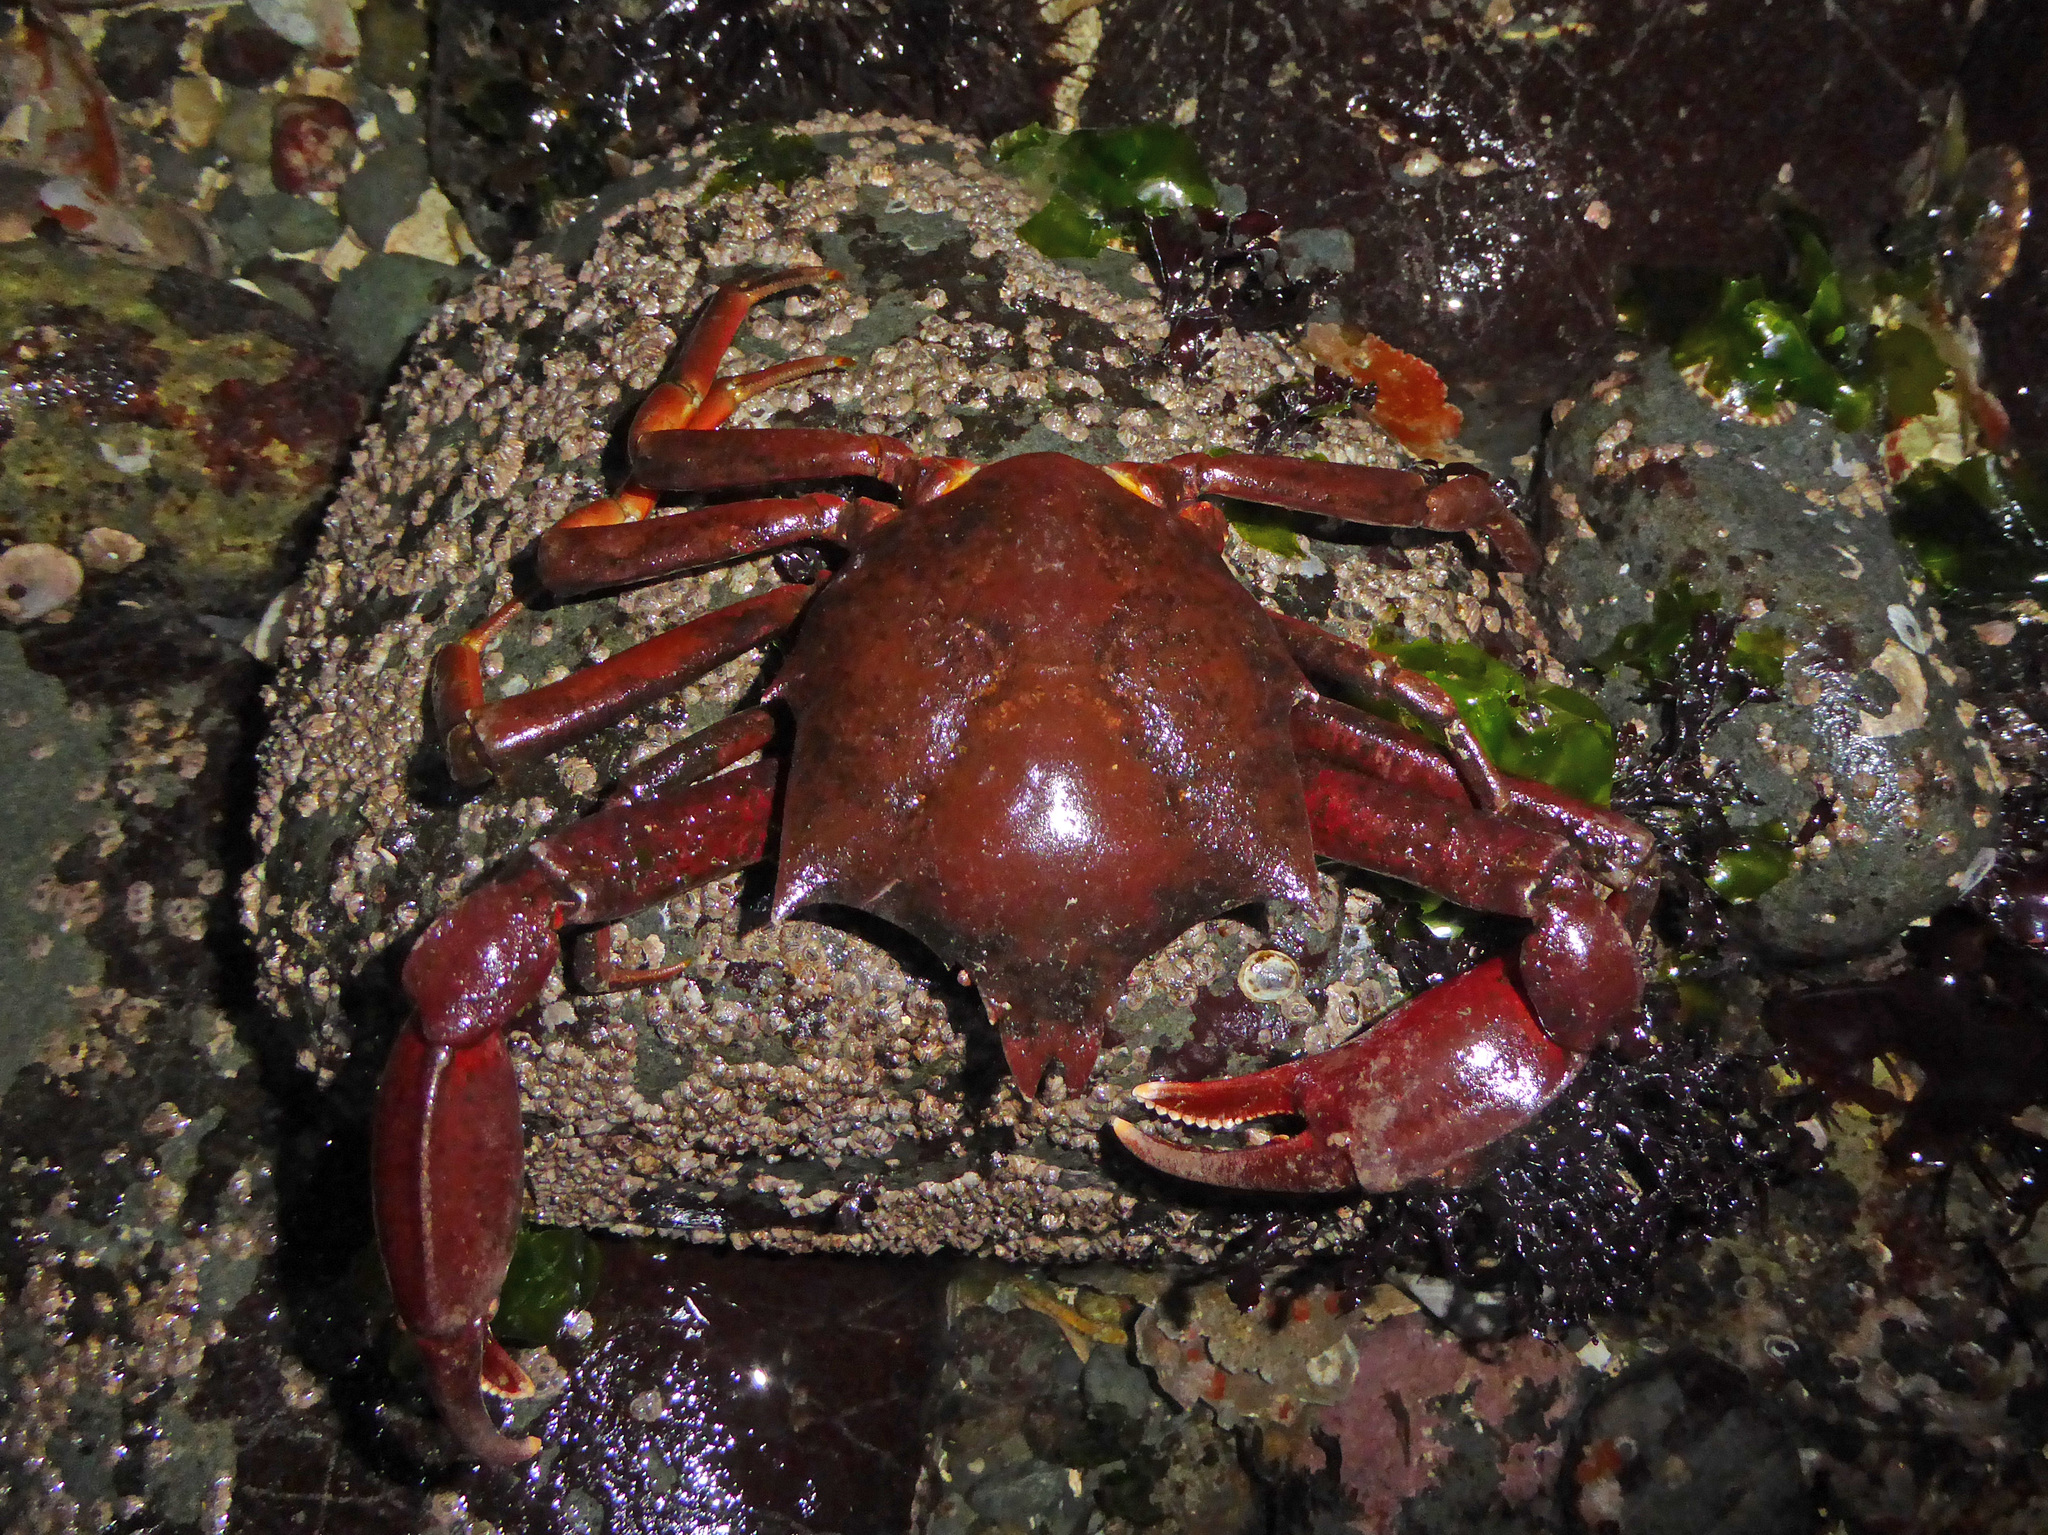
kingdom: Animalia
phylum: Arthropoda
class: Malacostraca
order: Decapoda
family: Epialtidae
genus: Pugettia
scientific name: Pugettia producta
